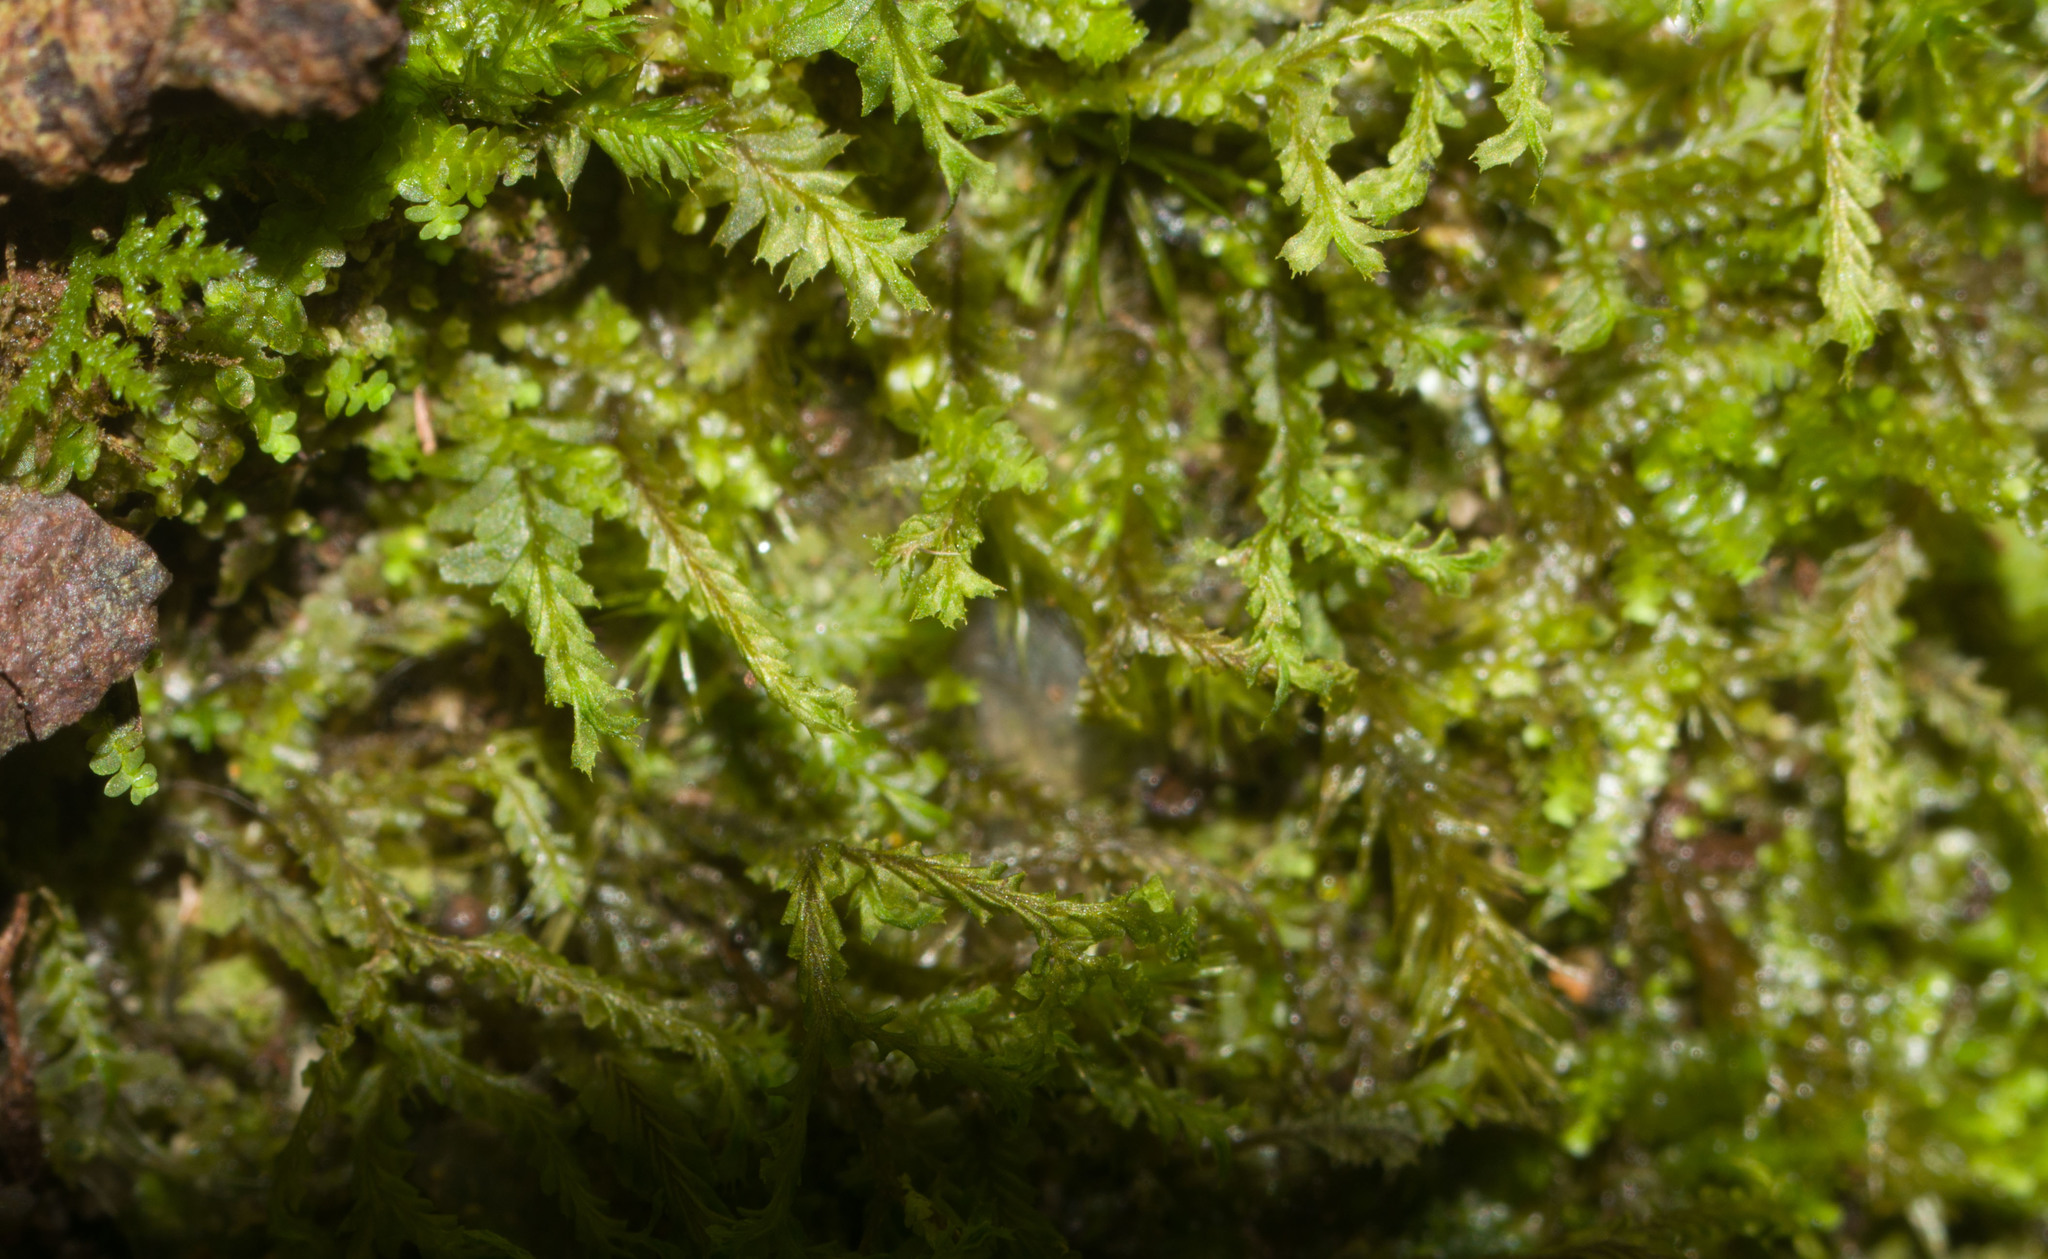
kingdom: Plantae
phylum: Marchantiophyta
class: Jungermanniopsida
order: Jungermanniales
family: Plagiochilaceae
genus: Plagiochila
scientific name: Plagiochila remyana
